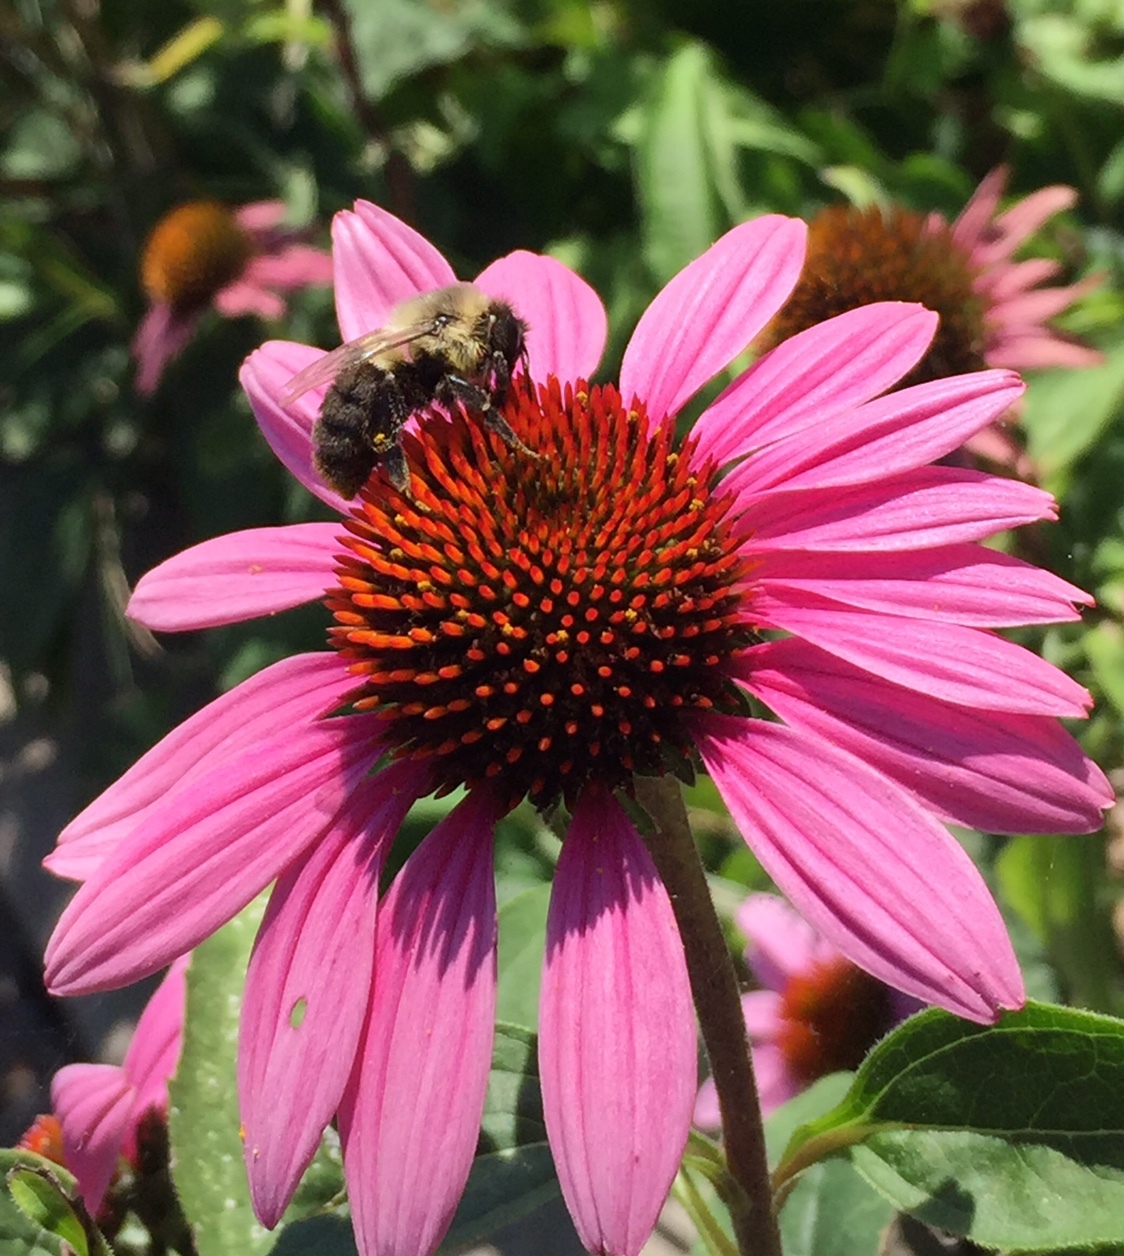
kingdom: Animalia
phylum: Arthropoda
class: Insecta
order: Hymenoptera
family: Apidae
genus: Bombus
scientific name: Bombus impatiens
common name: Common eastern bumble bee
